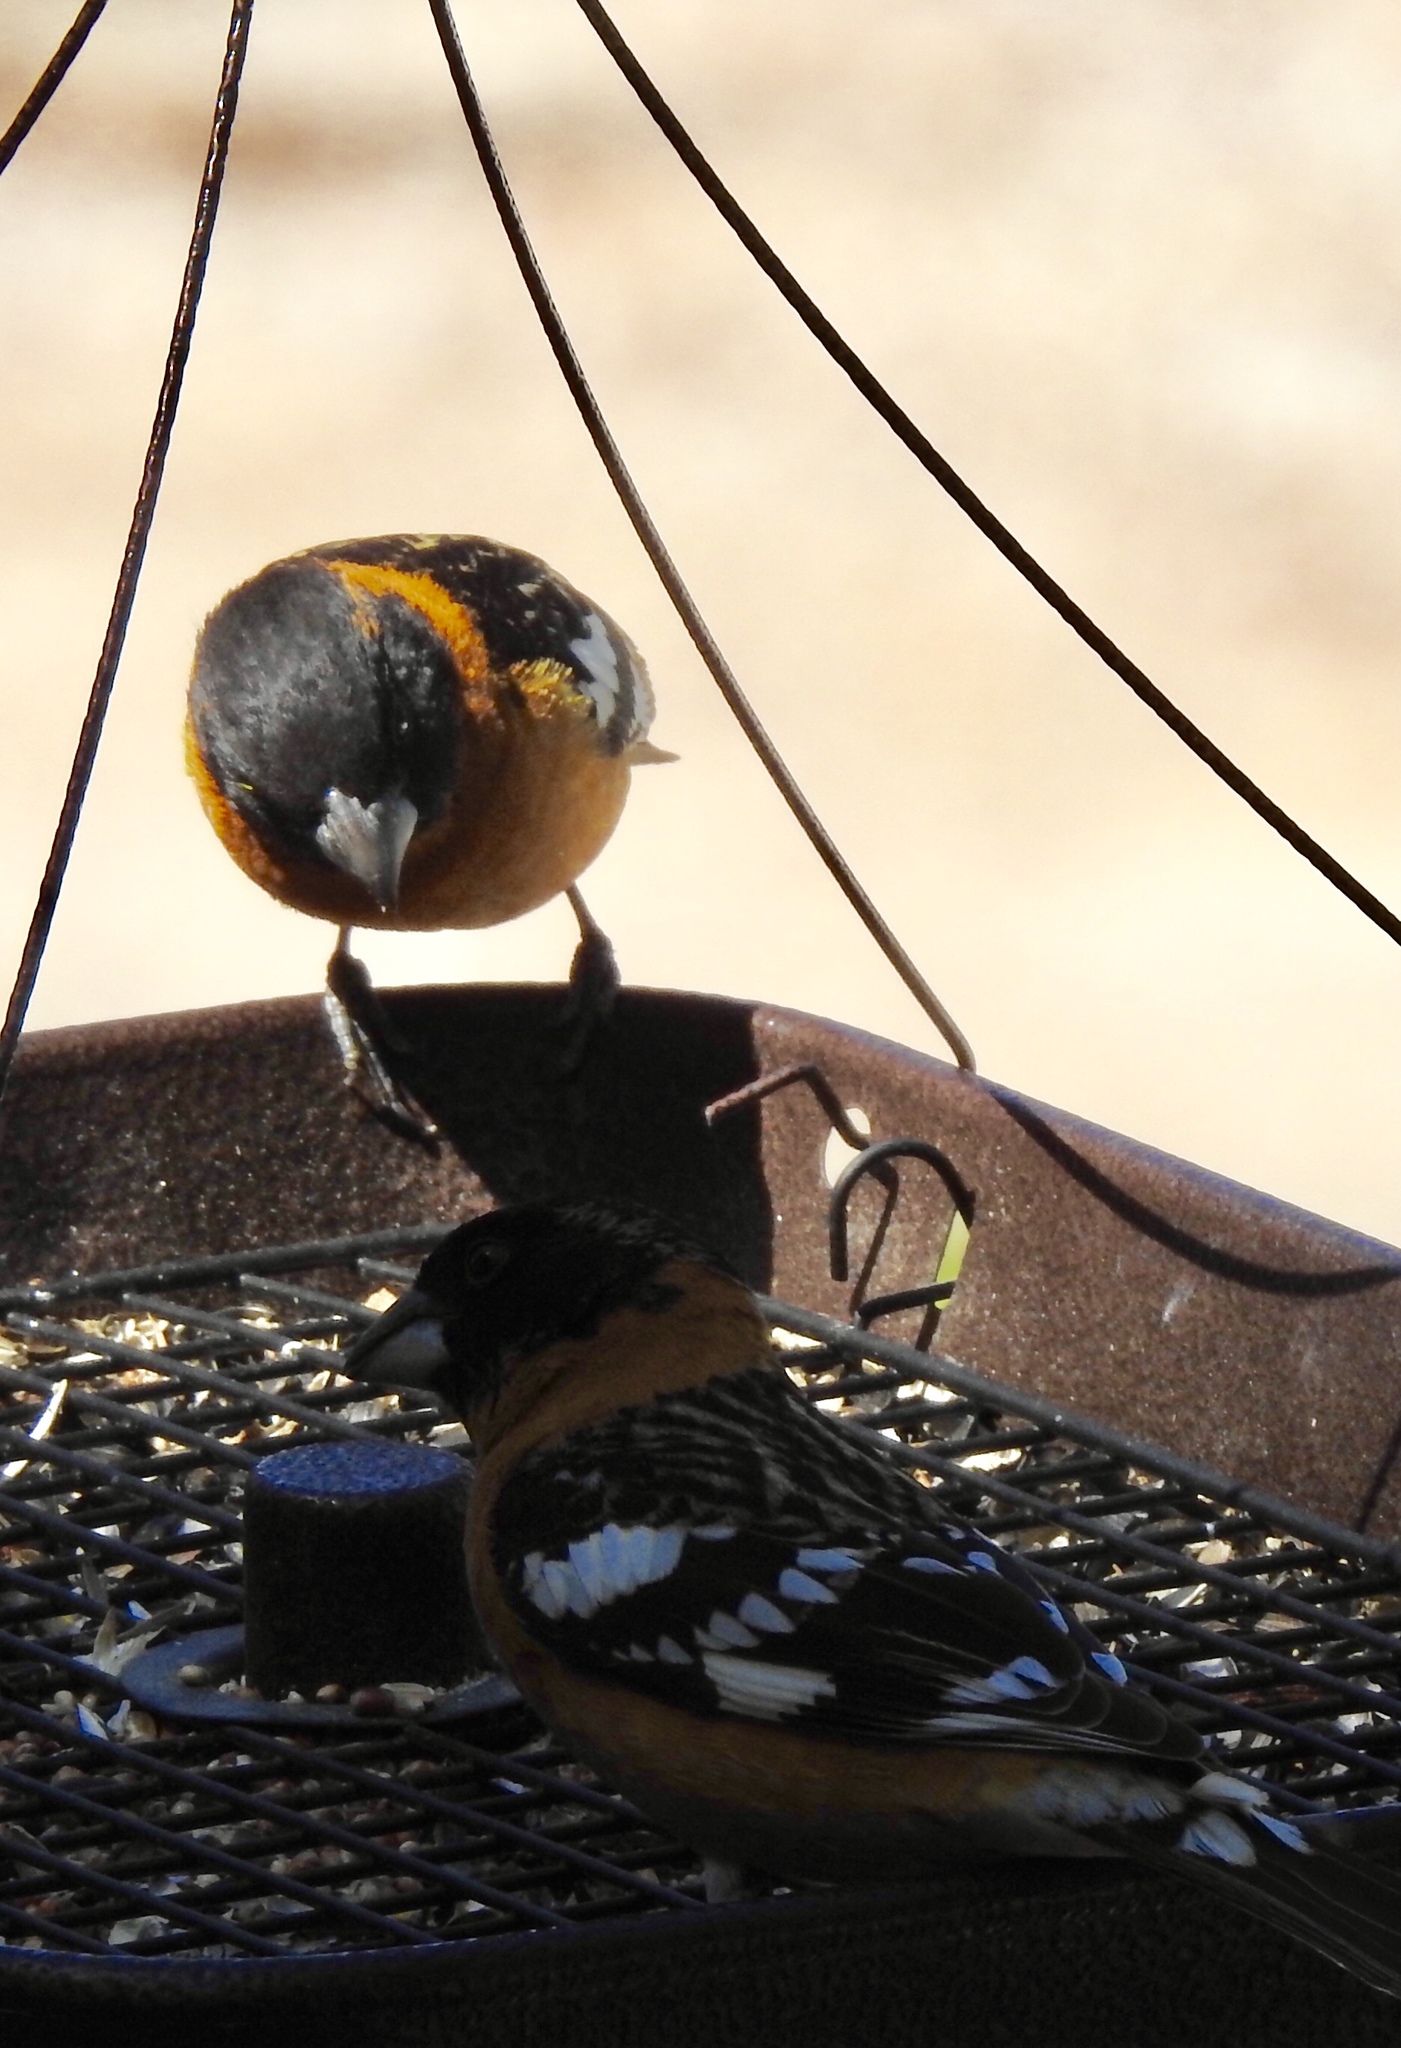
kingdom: Animalia
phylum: Chordata
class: Aves
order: Passeriformes
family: Cardinalidae
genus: Pheucticus
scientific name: Pheucticus melanocephalus
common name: Black-headed grosbeak
